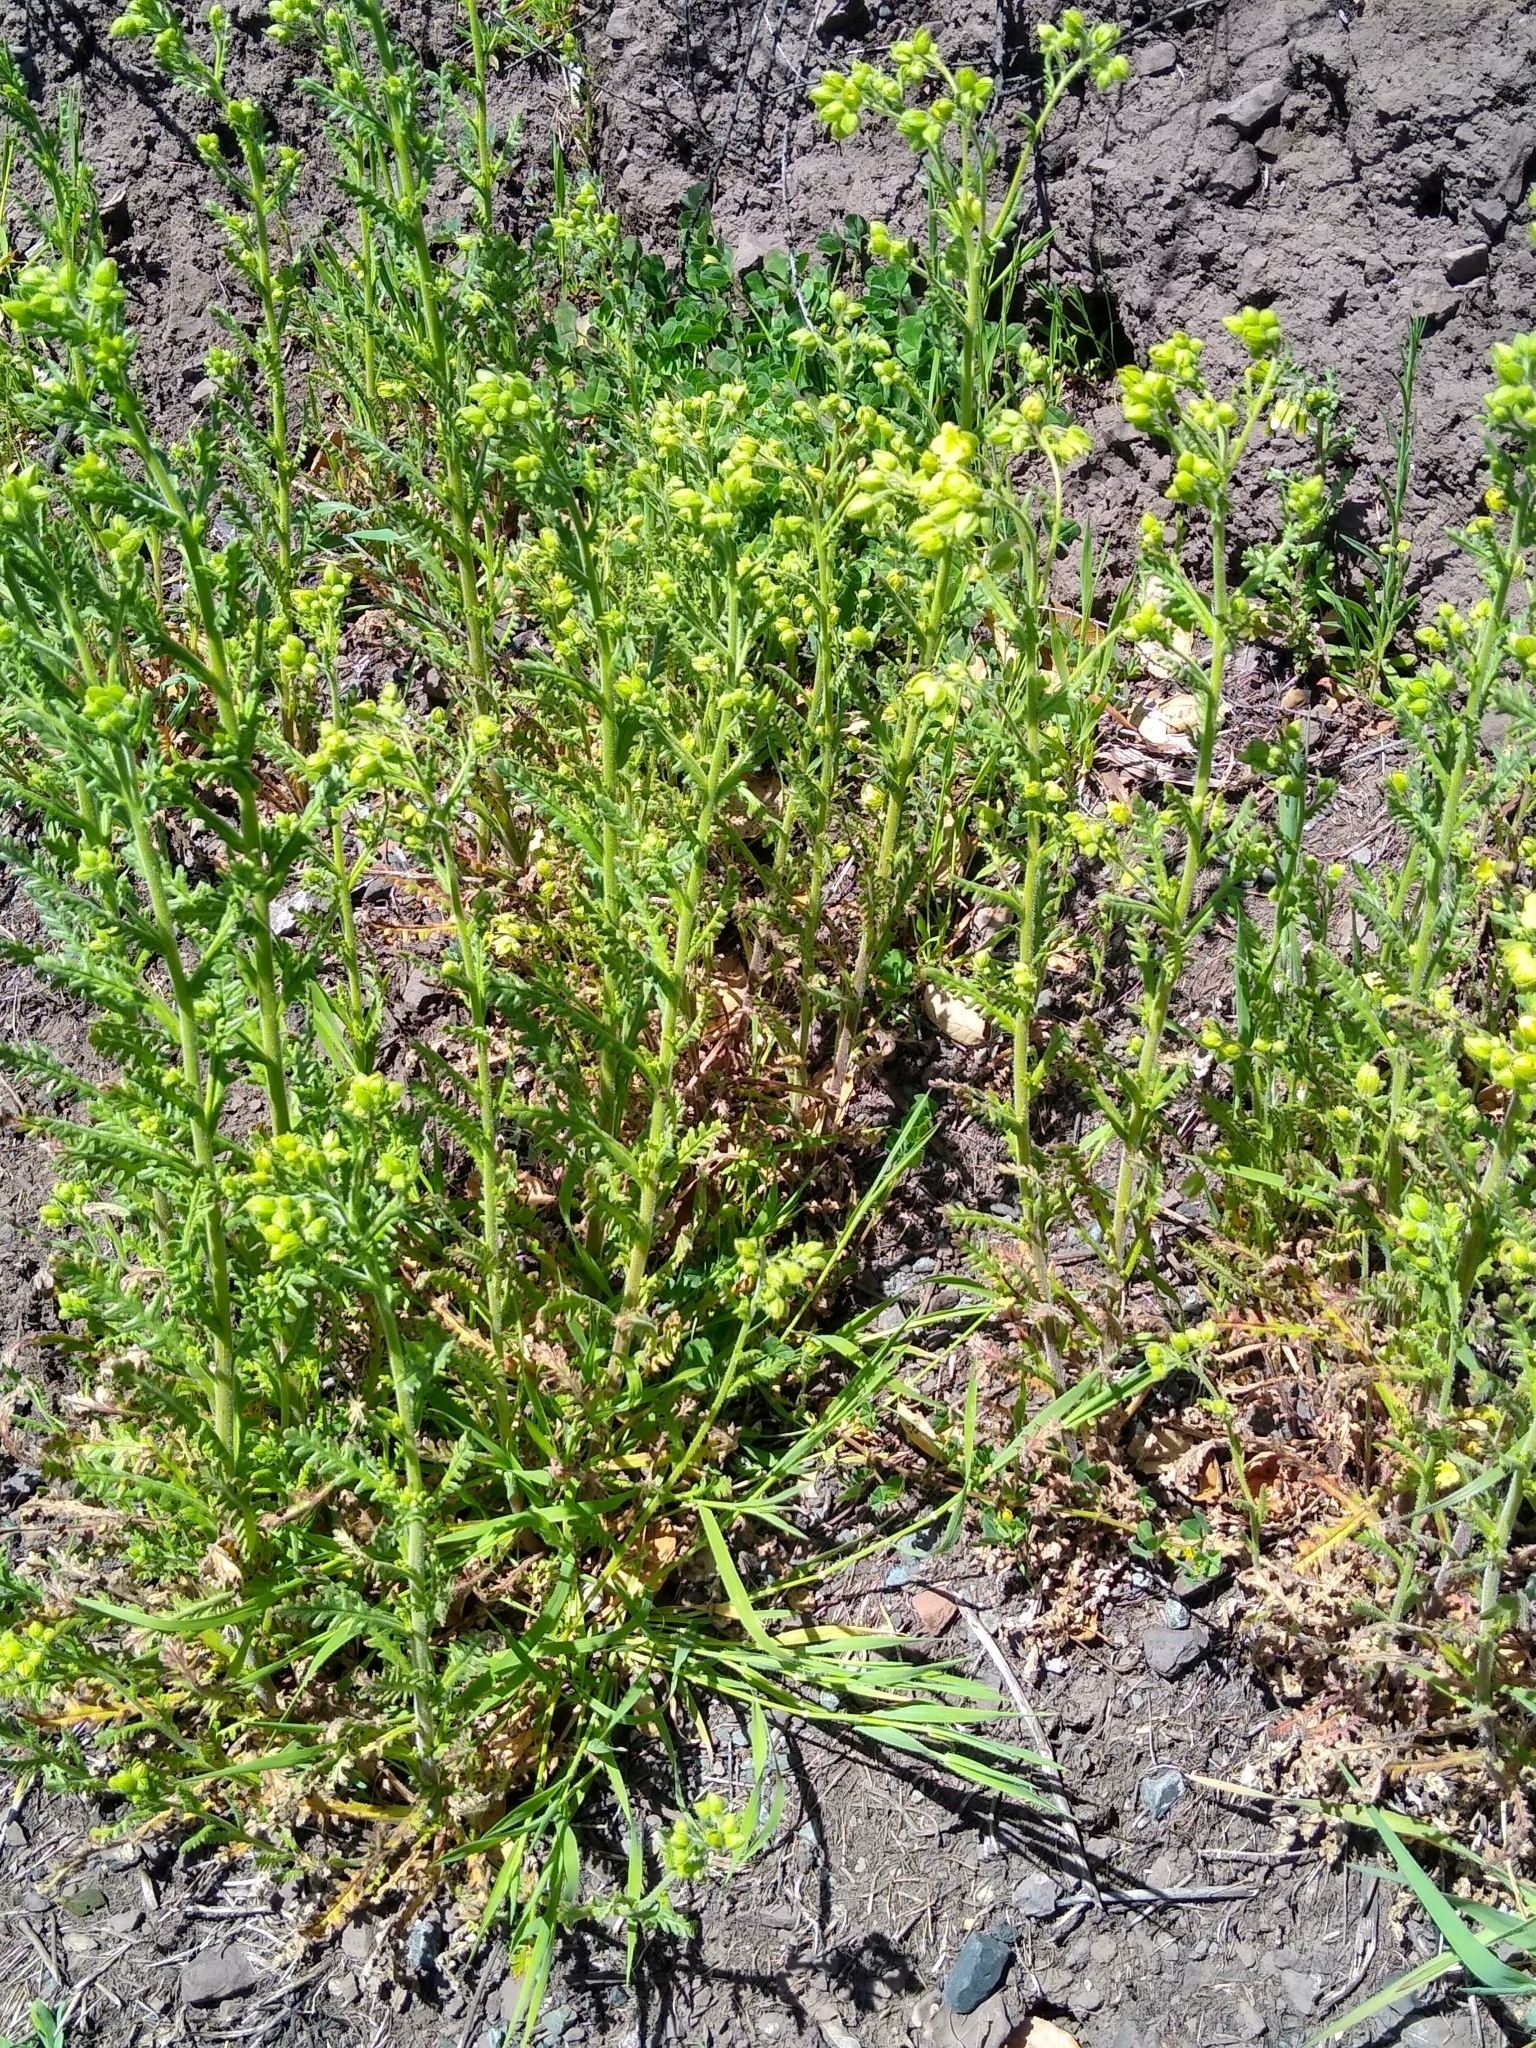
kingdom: Plantae
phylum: Tracheophyta
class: Magnoliopsida
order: Boraginales
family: Hydrophyllaceae
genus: Emmenanthe
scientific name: Emmenanthe penduliflora
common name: Whispering-bells
